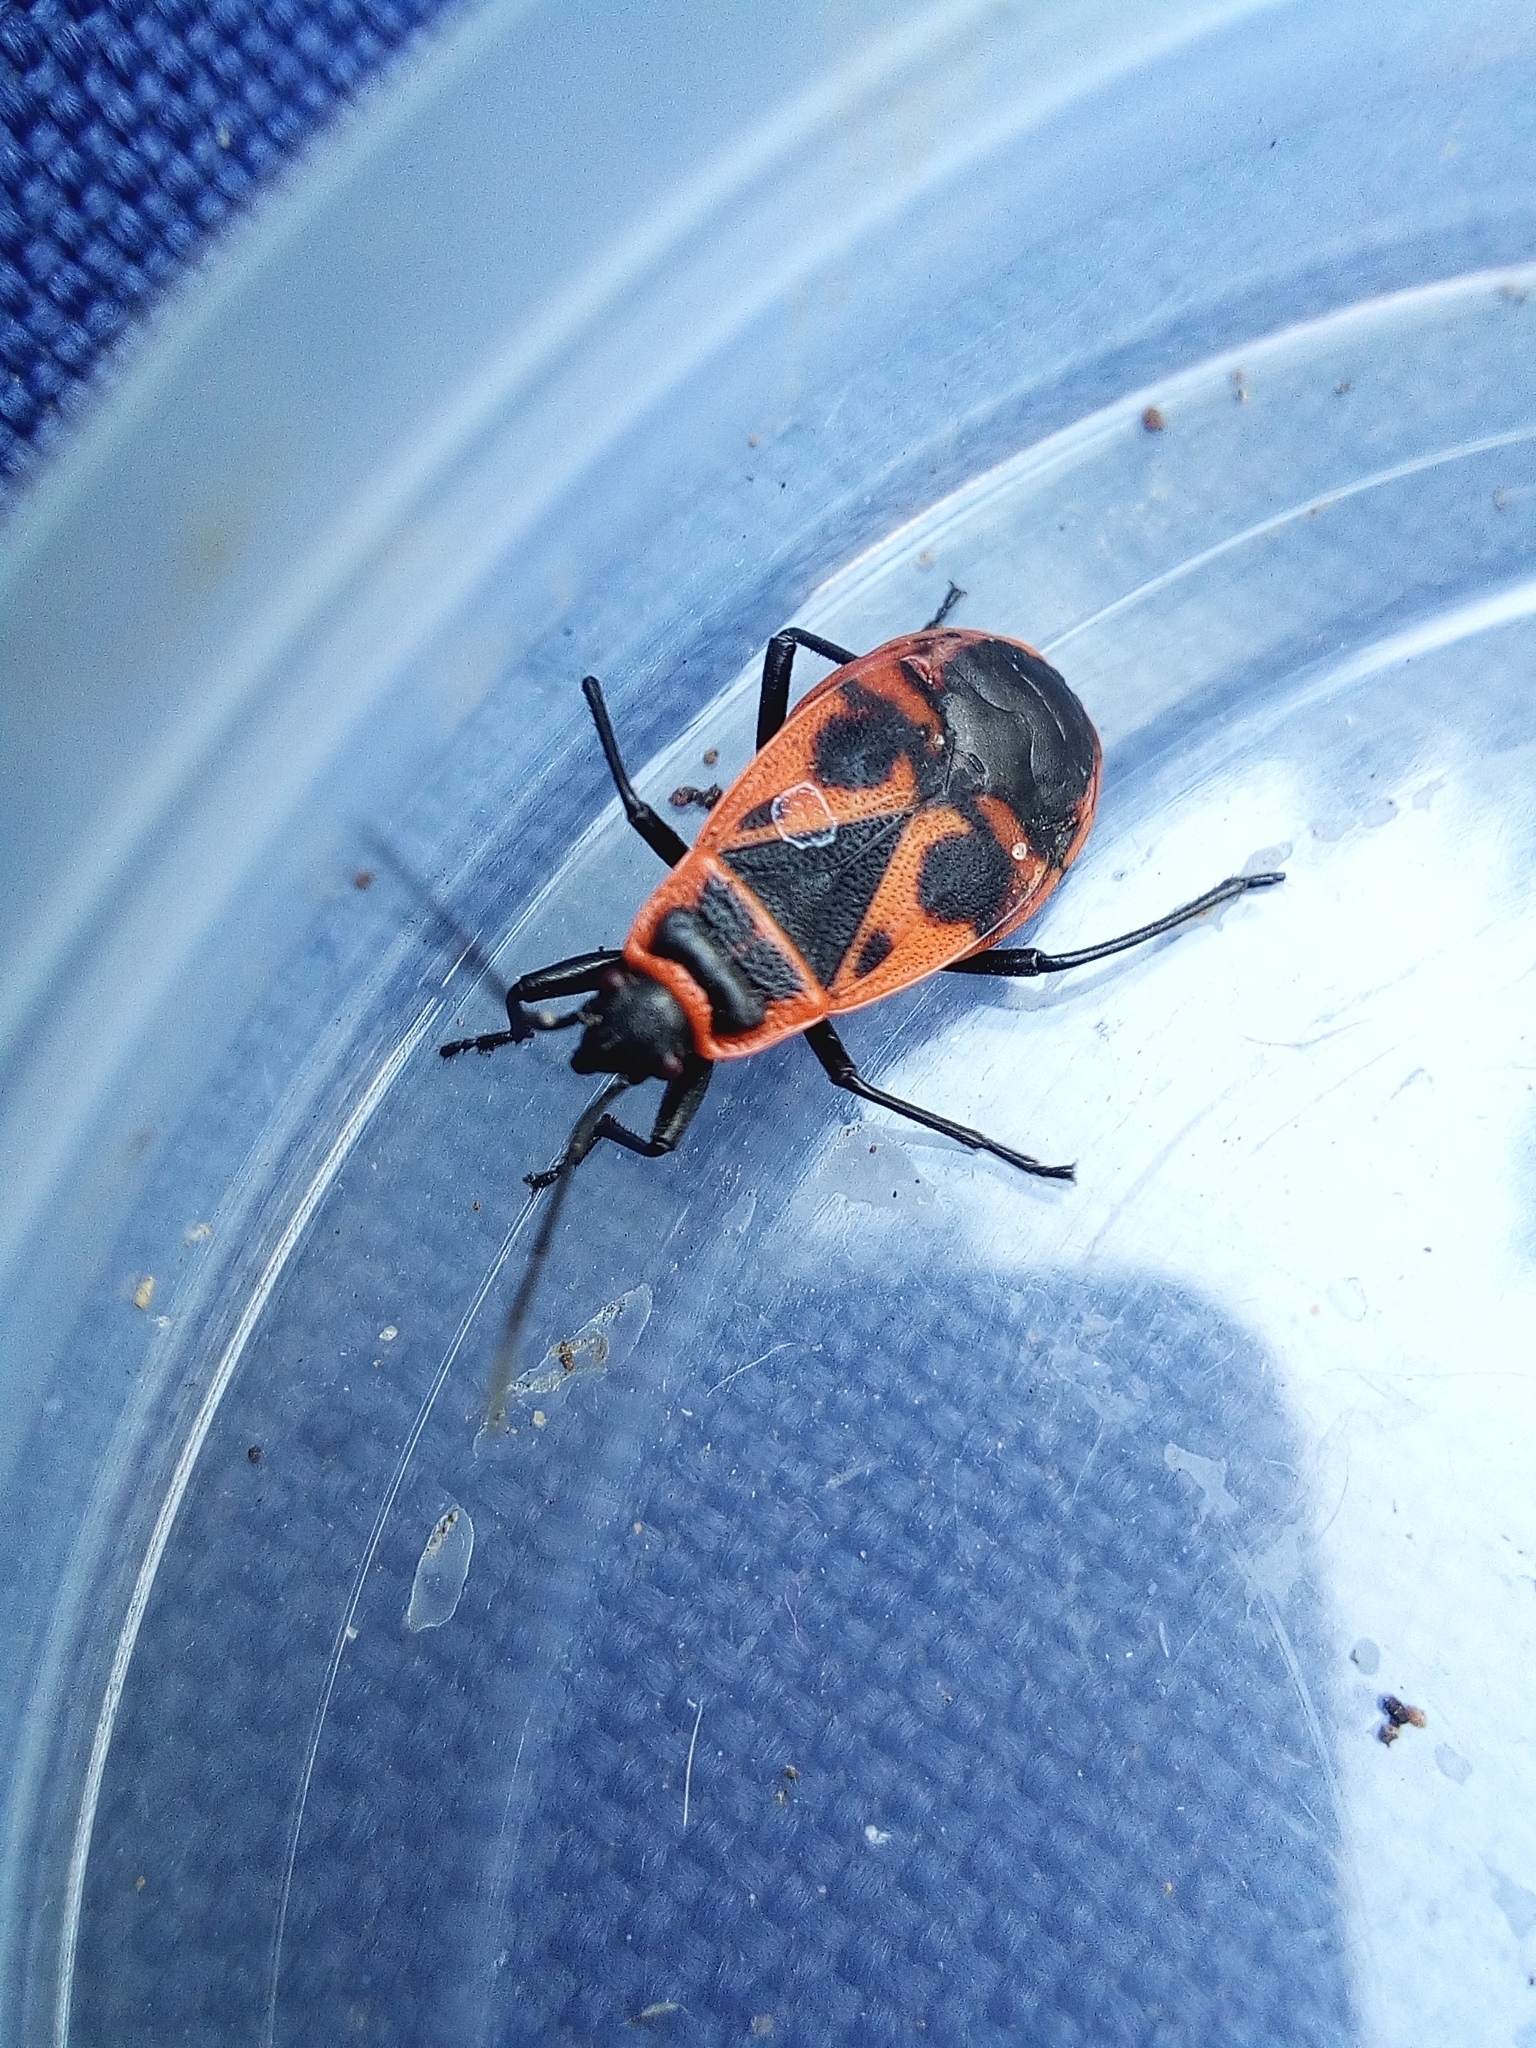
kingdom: Animalia
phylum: Arthropoda
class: Insecta
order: Hemiptera
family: Pyrrhocoridae
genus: Pyrrhocoris
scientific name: Pyrrhocoris apterus
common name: Firebug
